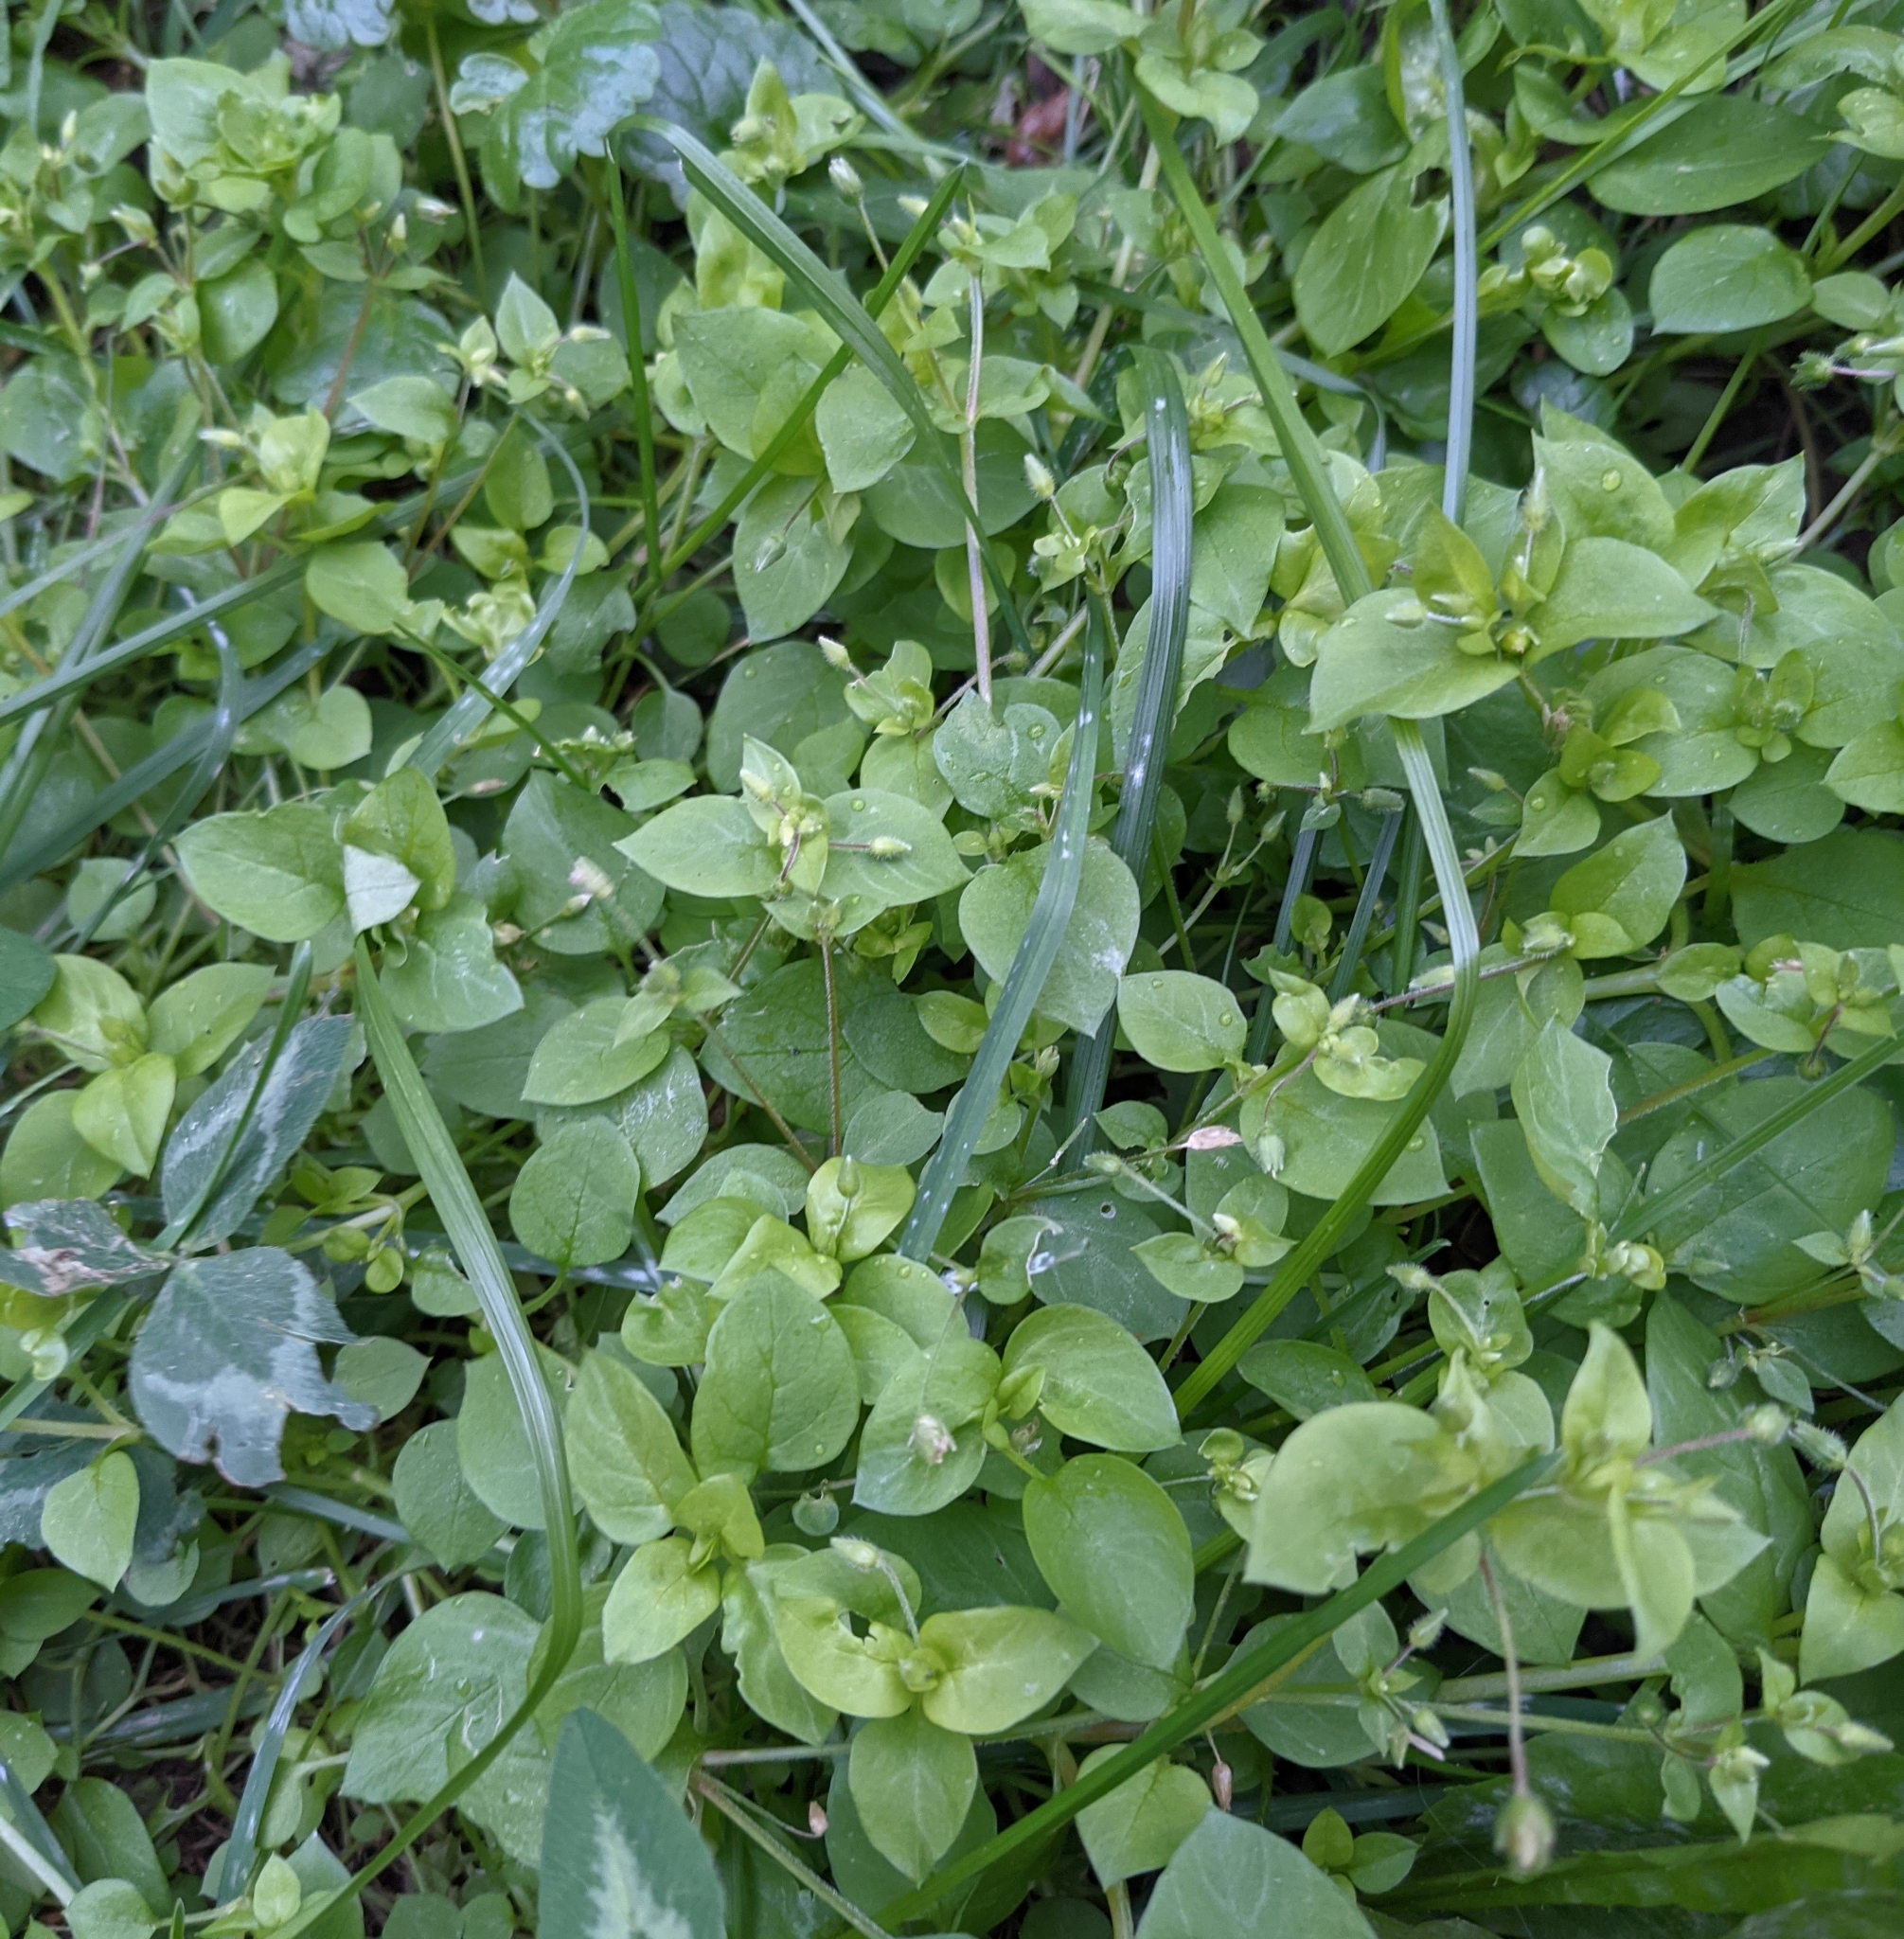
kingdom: Plantae
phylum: Tracheophyta
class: Magnoliopsida
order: Caryophyllales
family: Caryophyllaceae
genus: Stellaria
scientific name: Stellaria media
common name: Common chickweed
